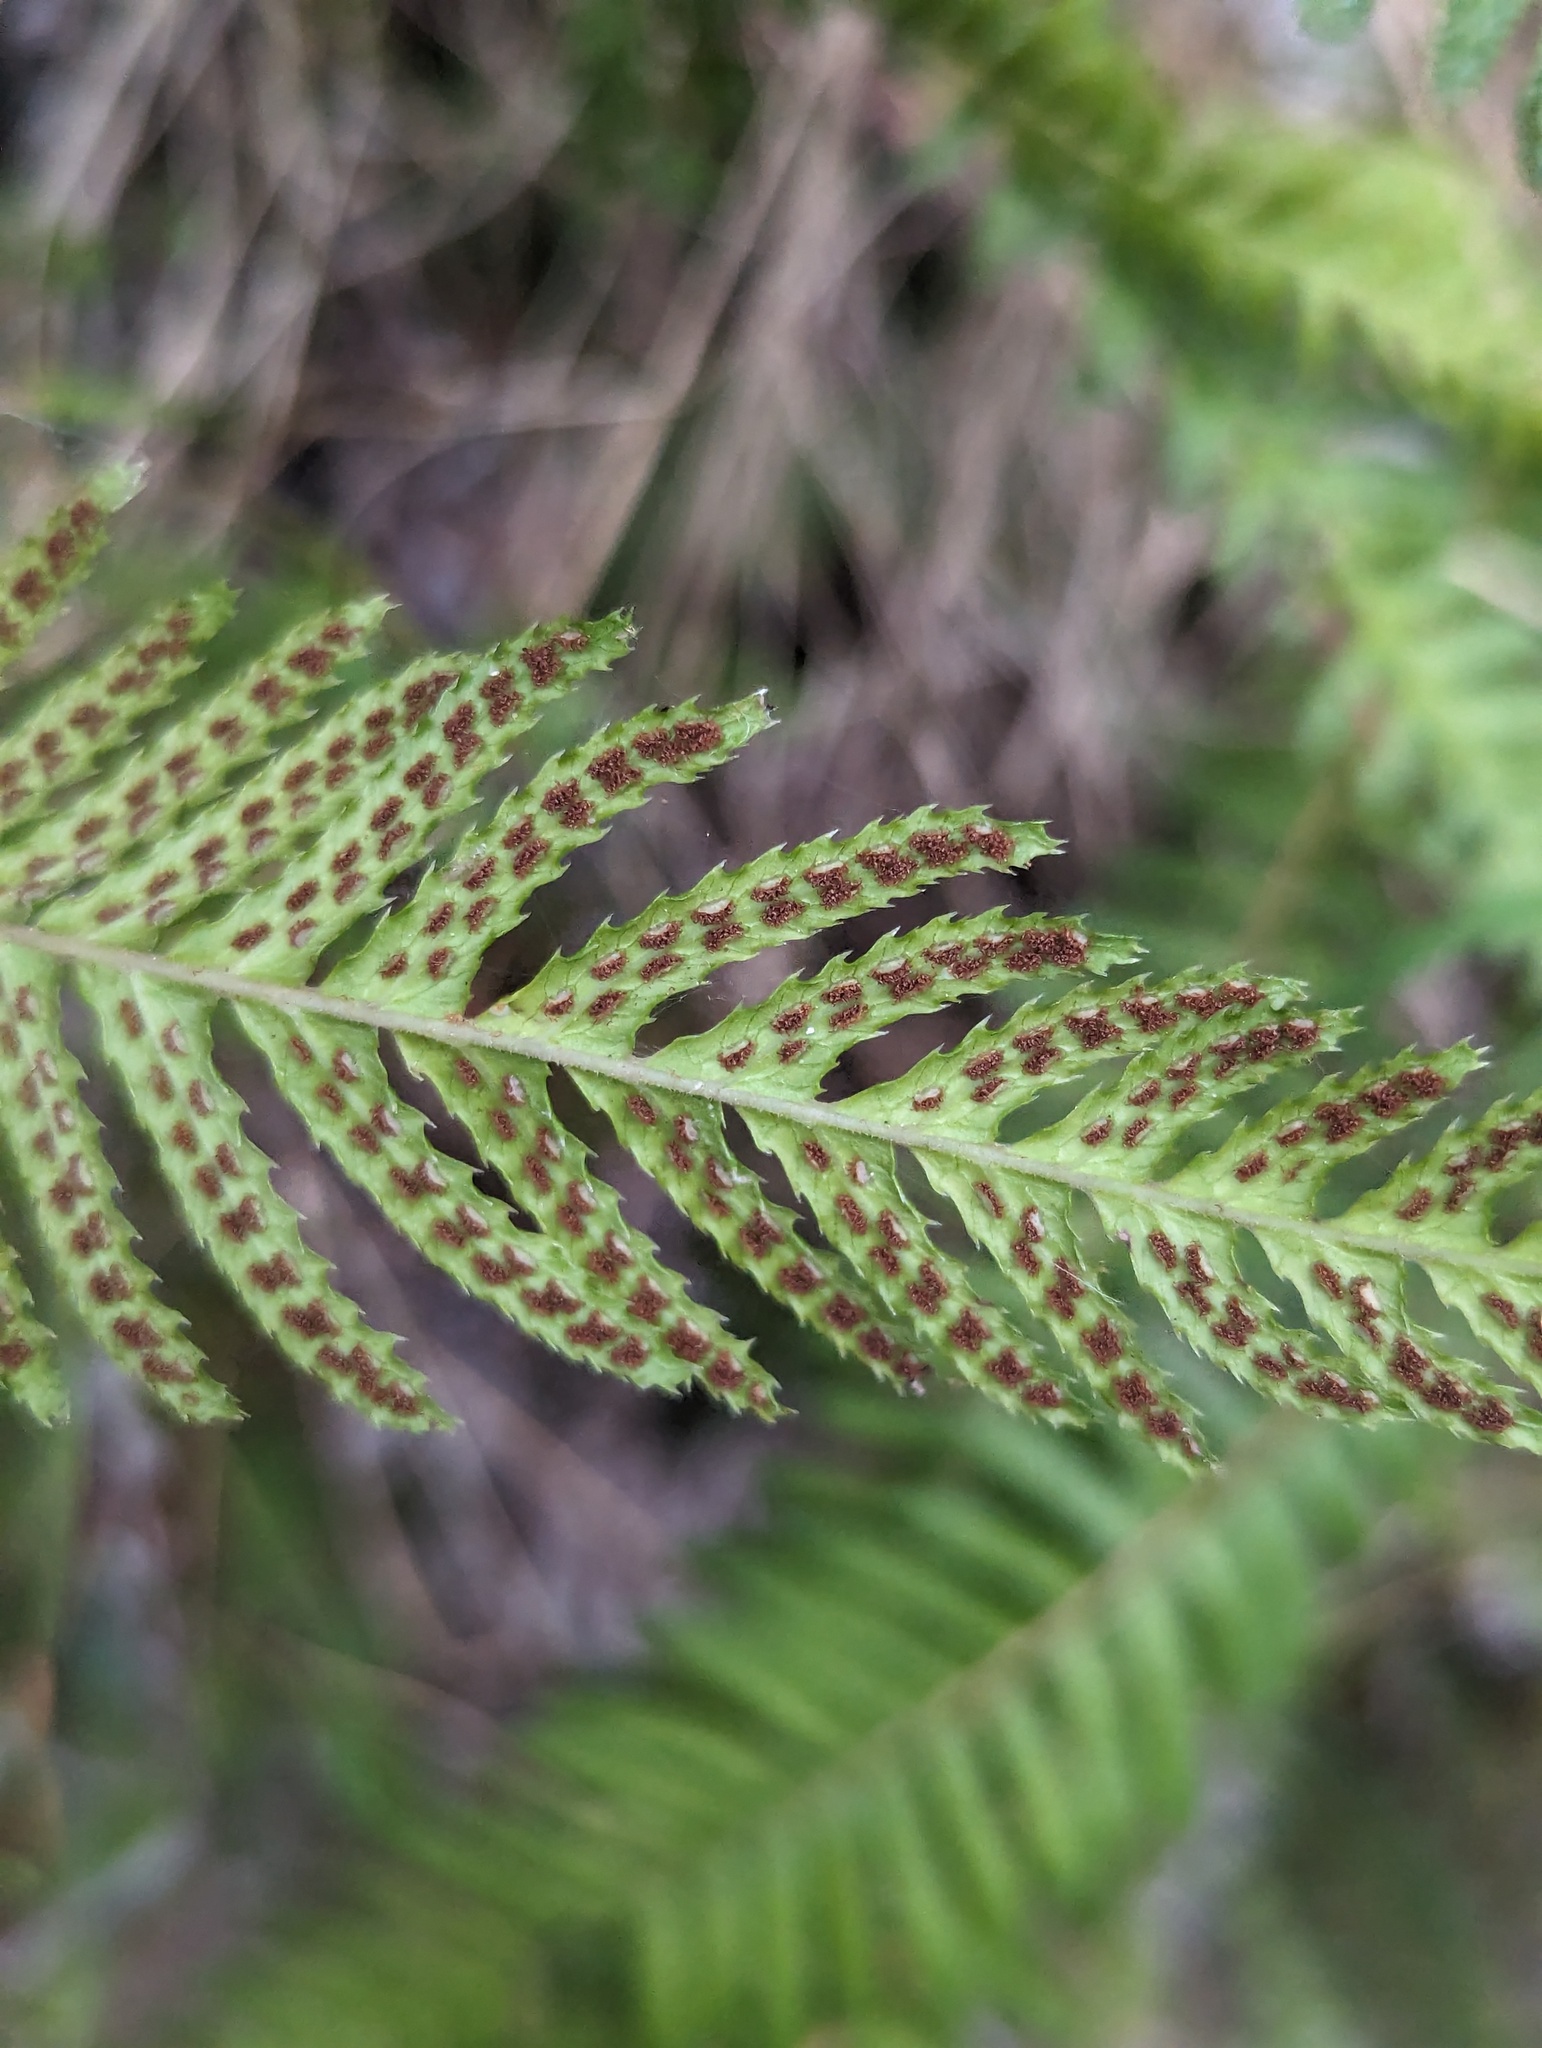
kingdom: Plantae
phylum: Tracheophyta
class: Polypodiopsida
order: Polypodiales
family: Blechnaceae
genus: Doodia
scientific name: Doodia australis
